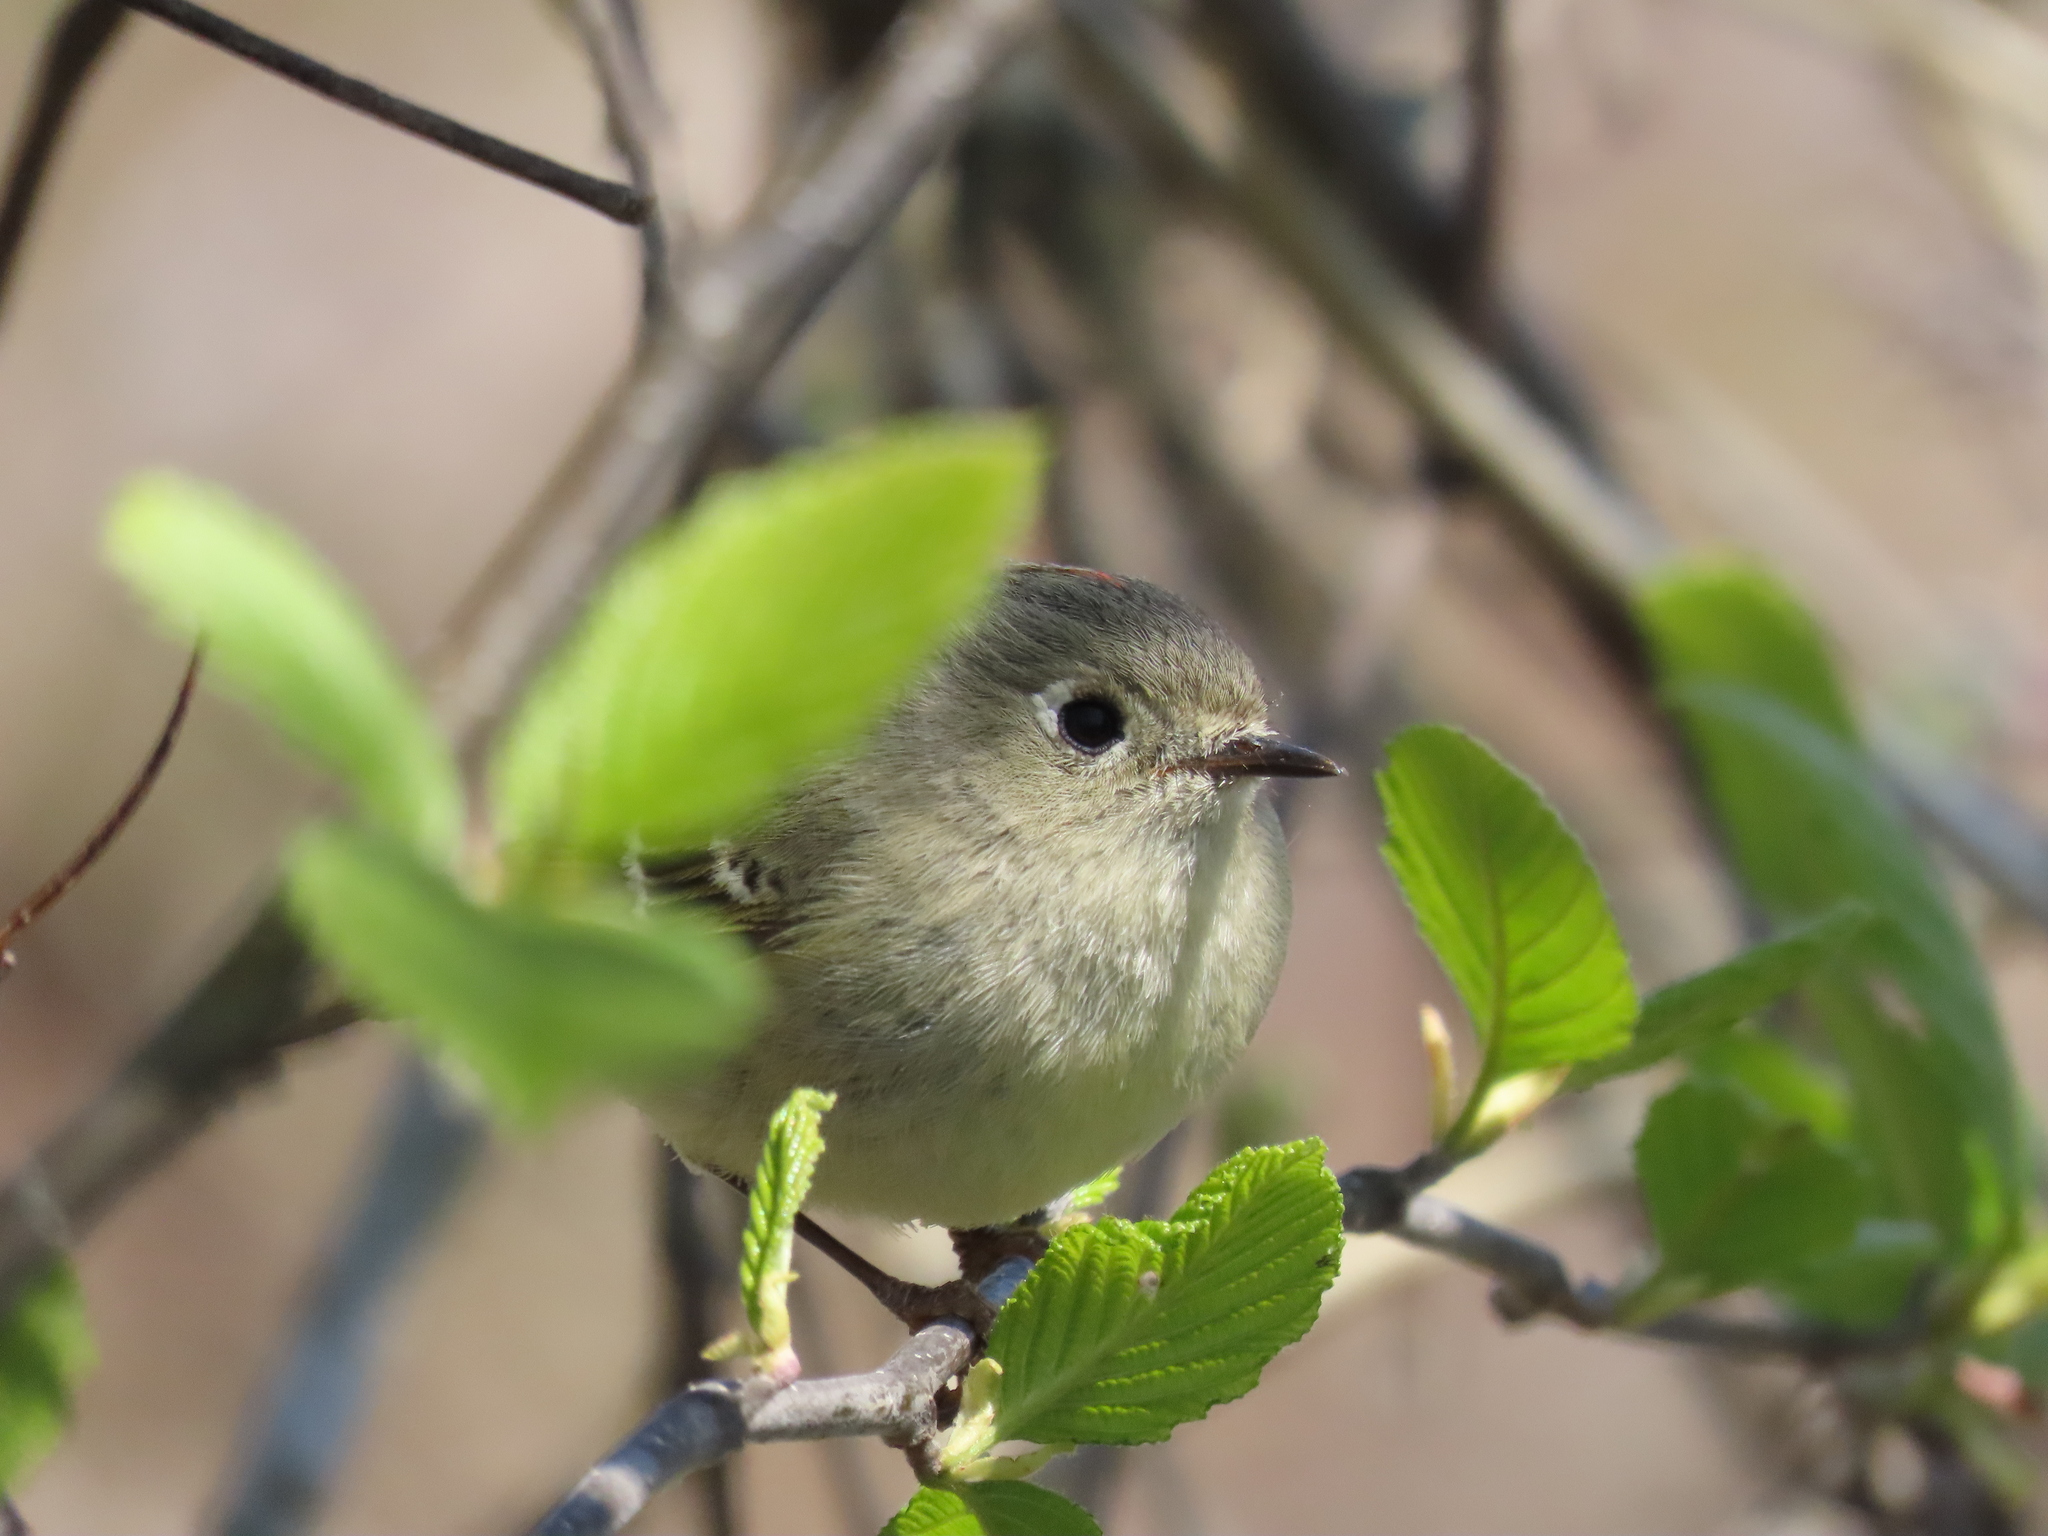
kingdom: Animalia
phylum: Chordata
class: Aves
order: Passeriformes
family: Regulidae
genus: Regulus
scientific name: Regulus calendula
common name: Ruby-crowned kinglet
